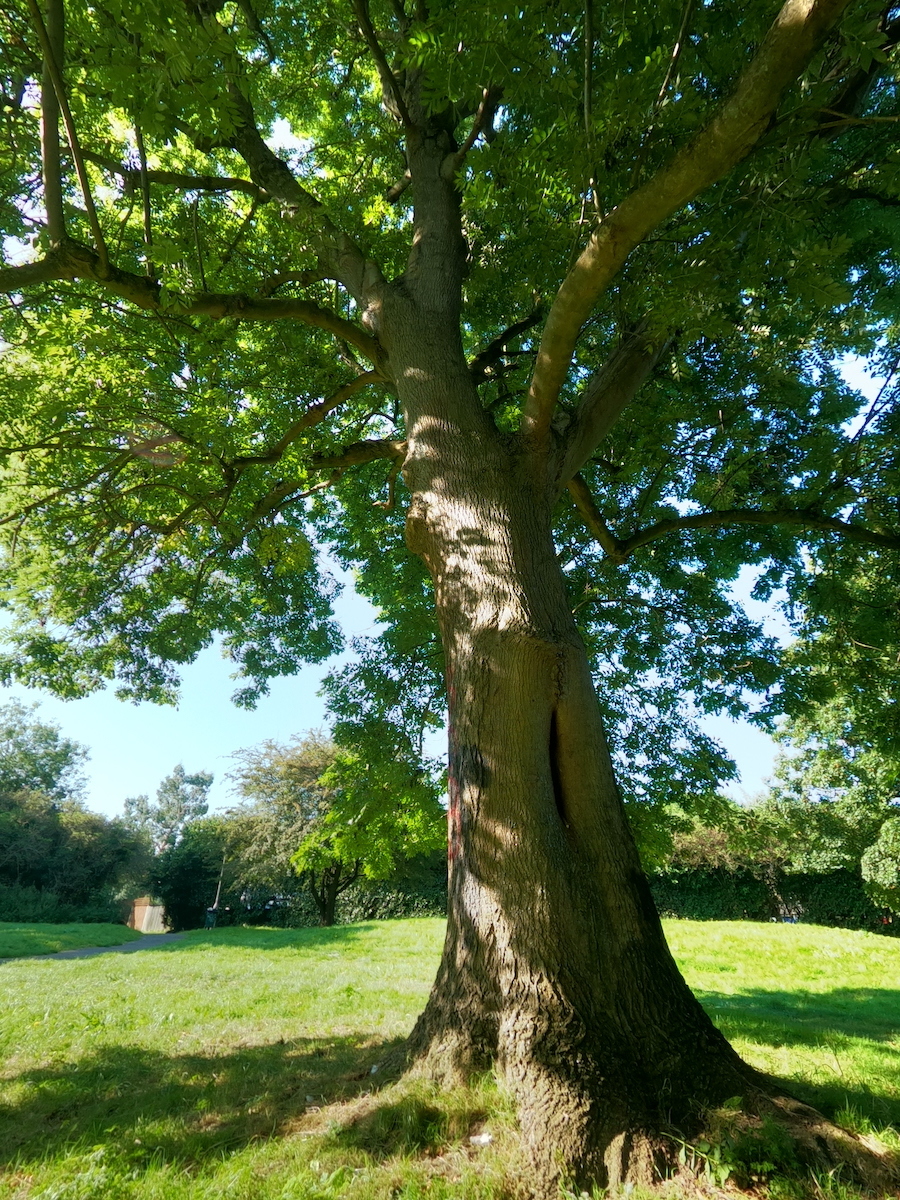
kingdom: Plantae
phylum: Tracheophyta
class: Magnoliopsida
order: Lamiales
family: Oleaceae
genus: Fraxinus
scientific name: Fraxinus excelsior
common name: European ash
